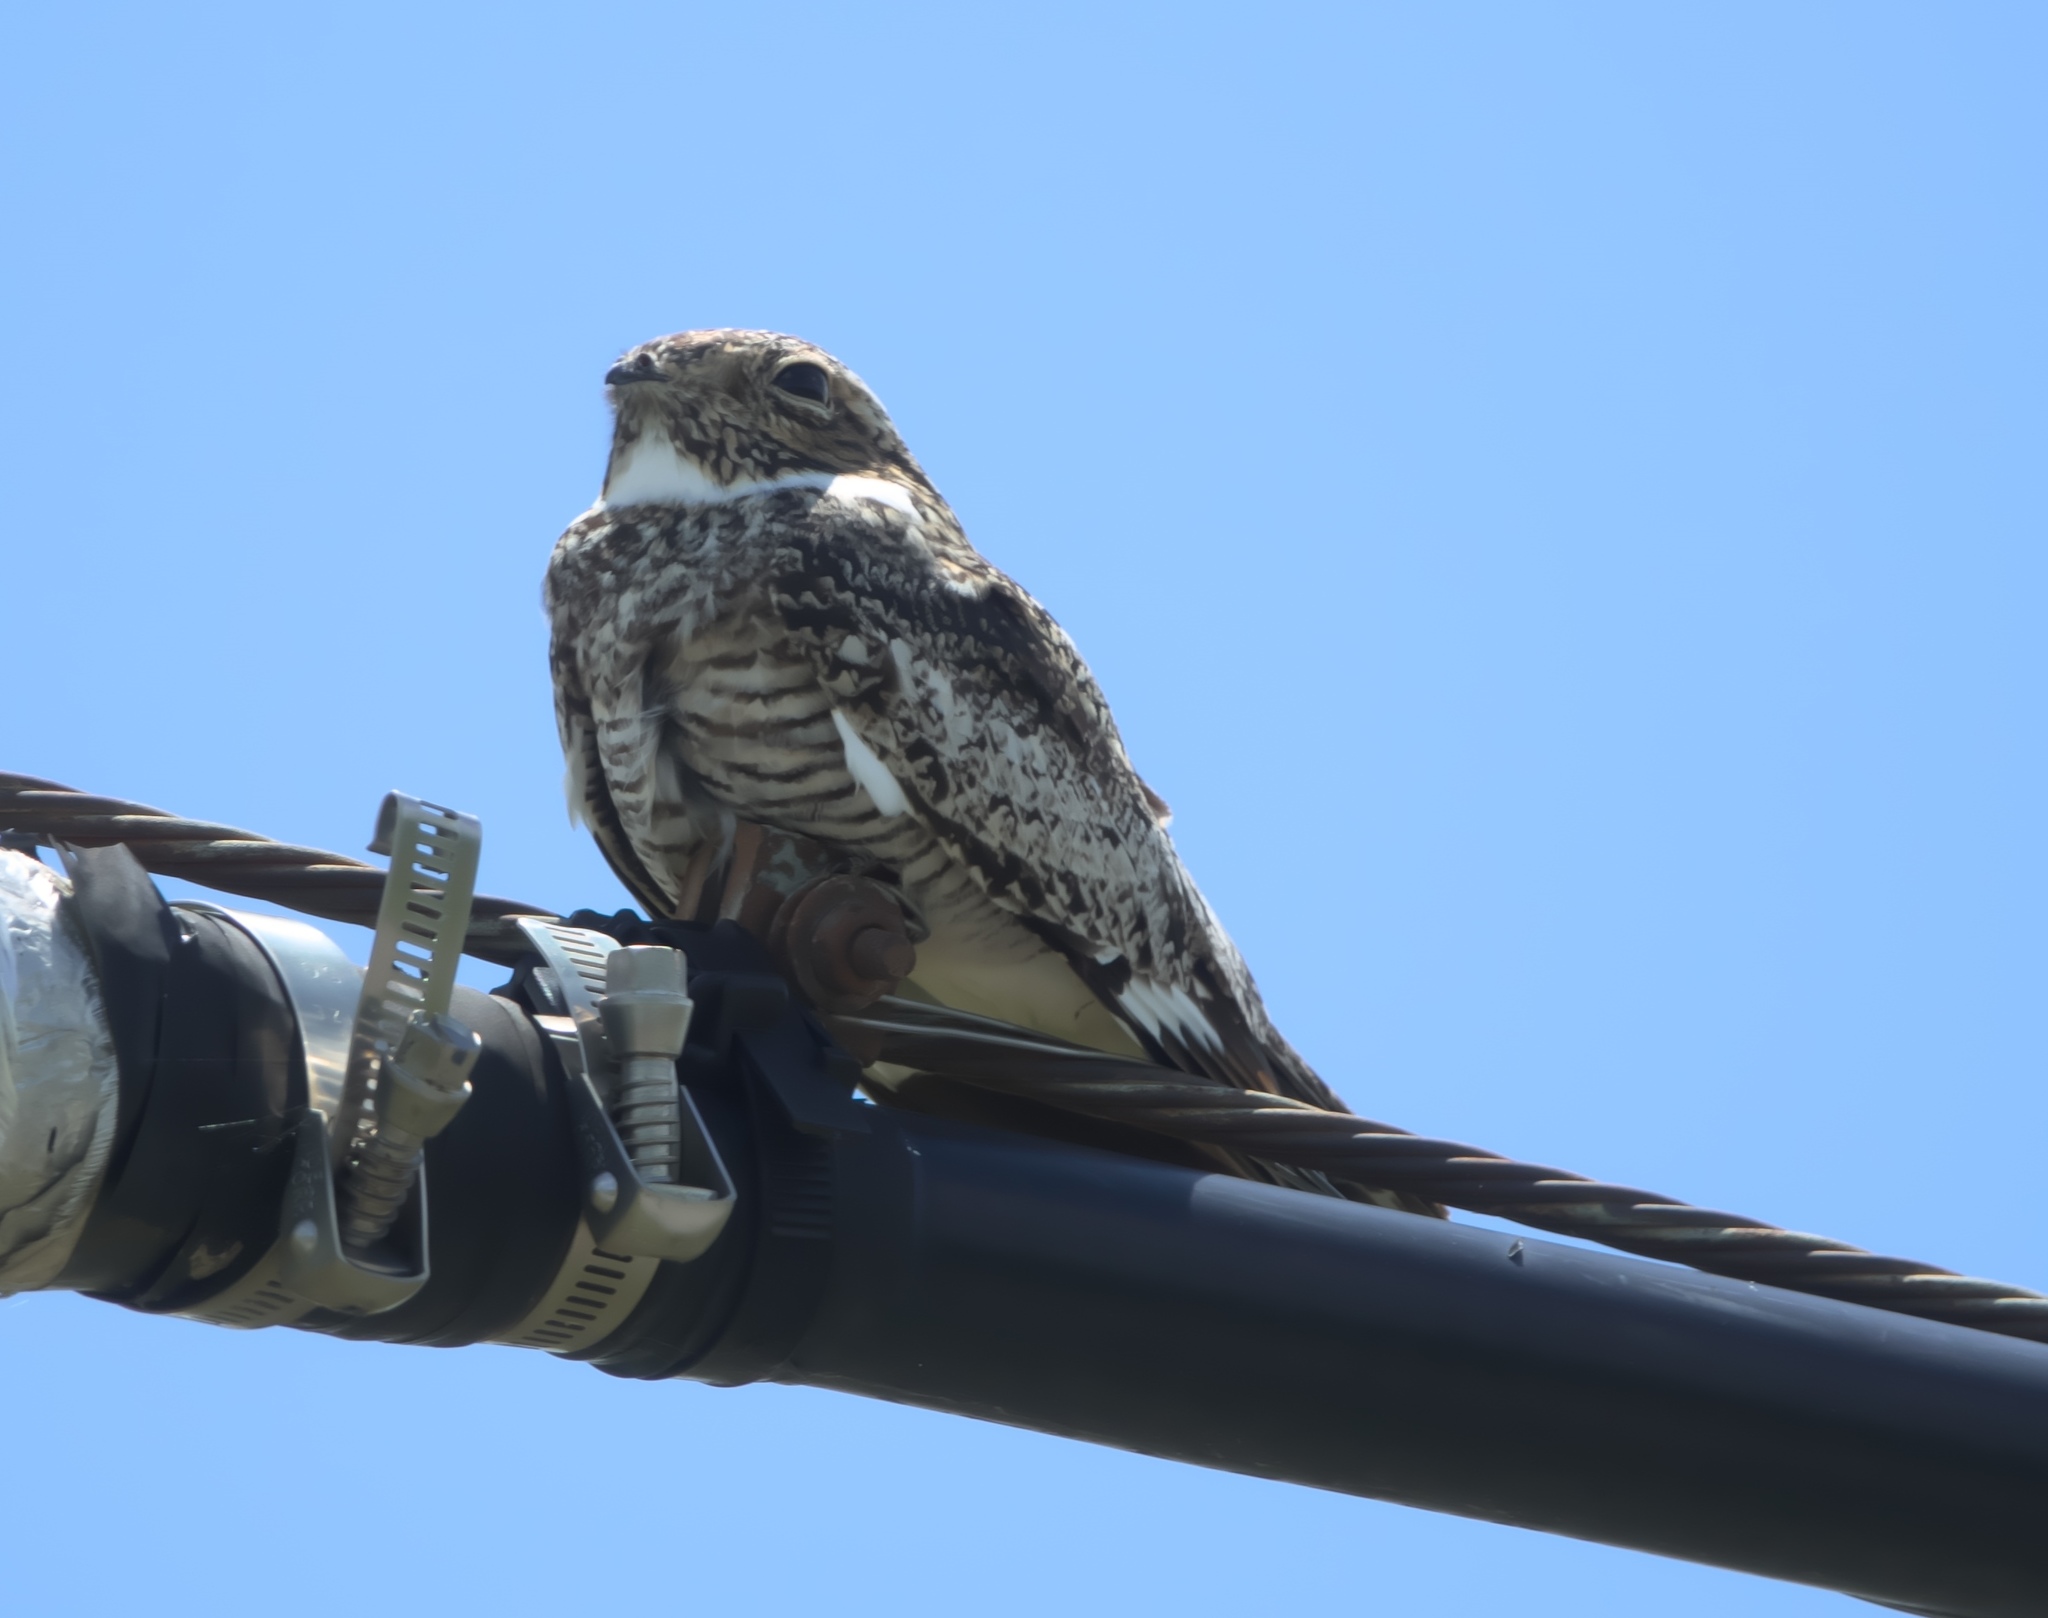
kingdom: Animalia
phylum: Chordata
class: Aves
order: Caprimulgiformes
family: Caprimulgidae
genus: Chordeiles
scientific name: Chordeiles minor
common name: Common nighthawk
